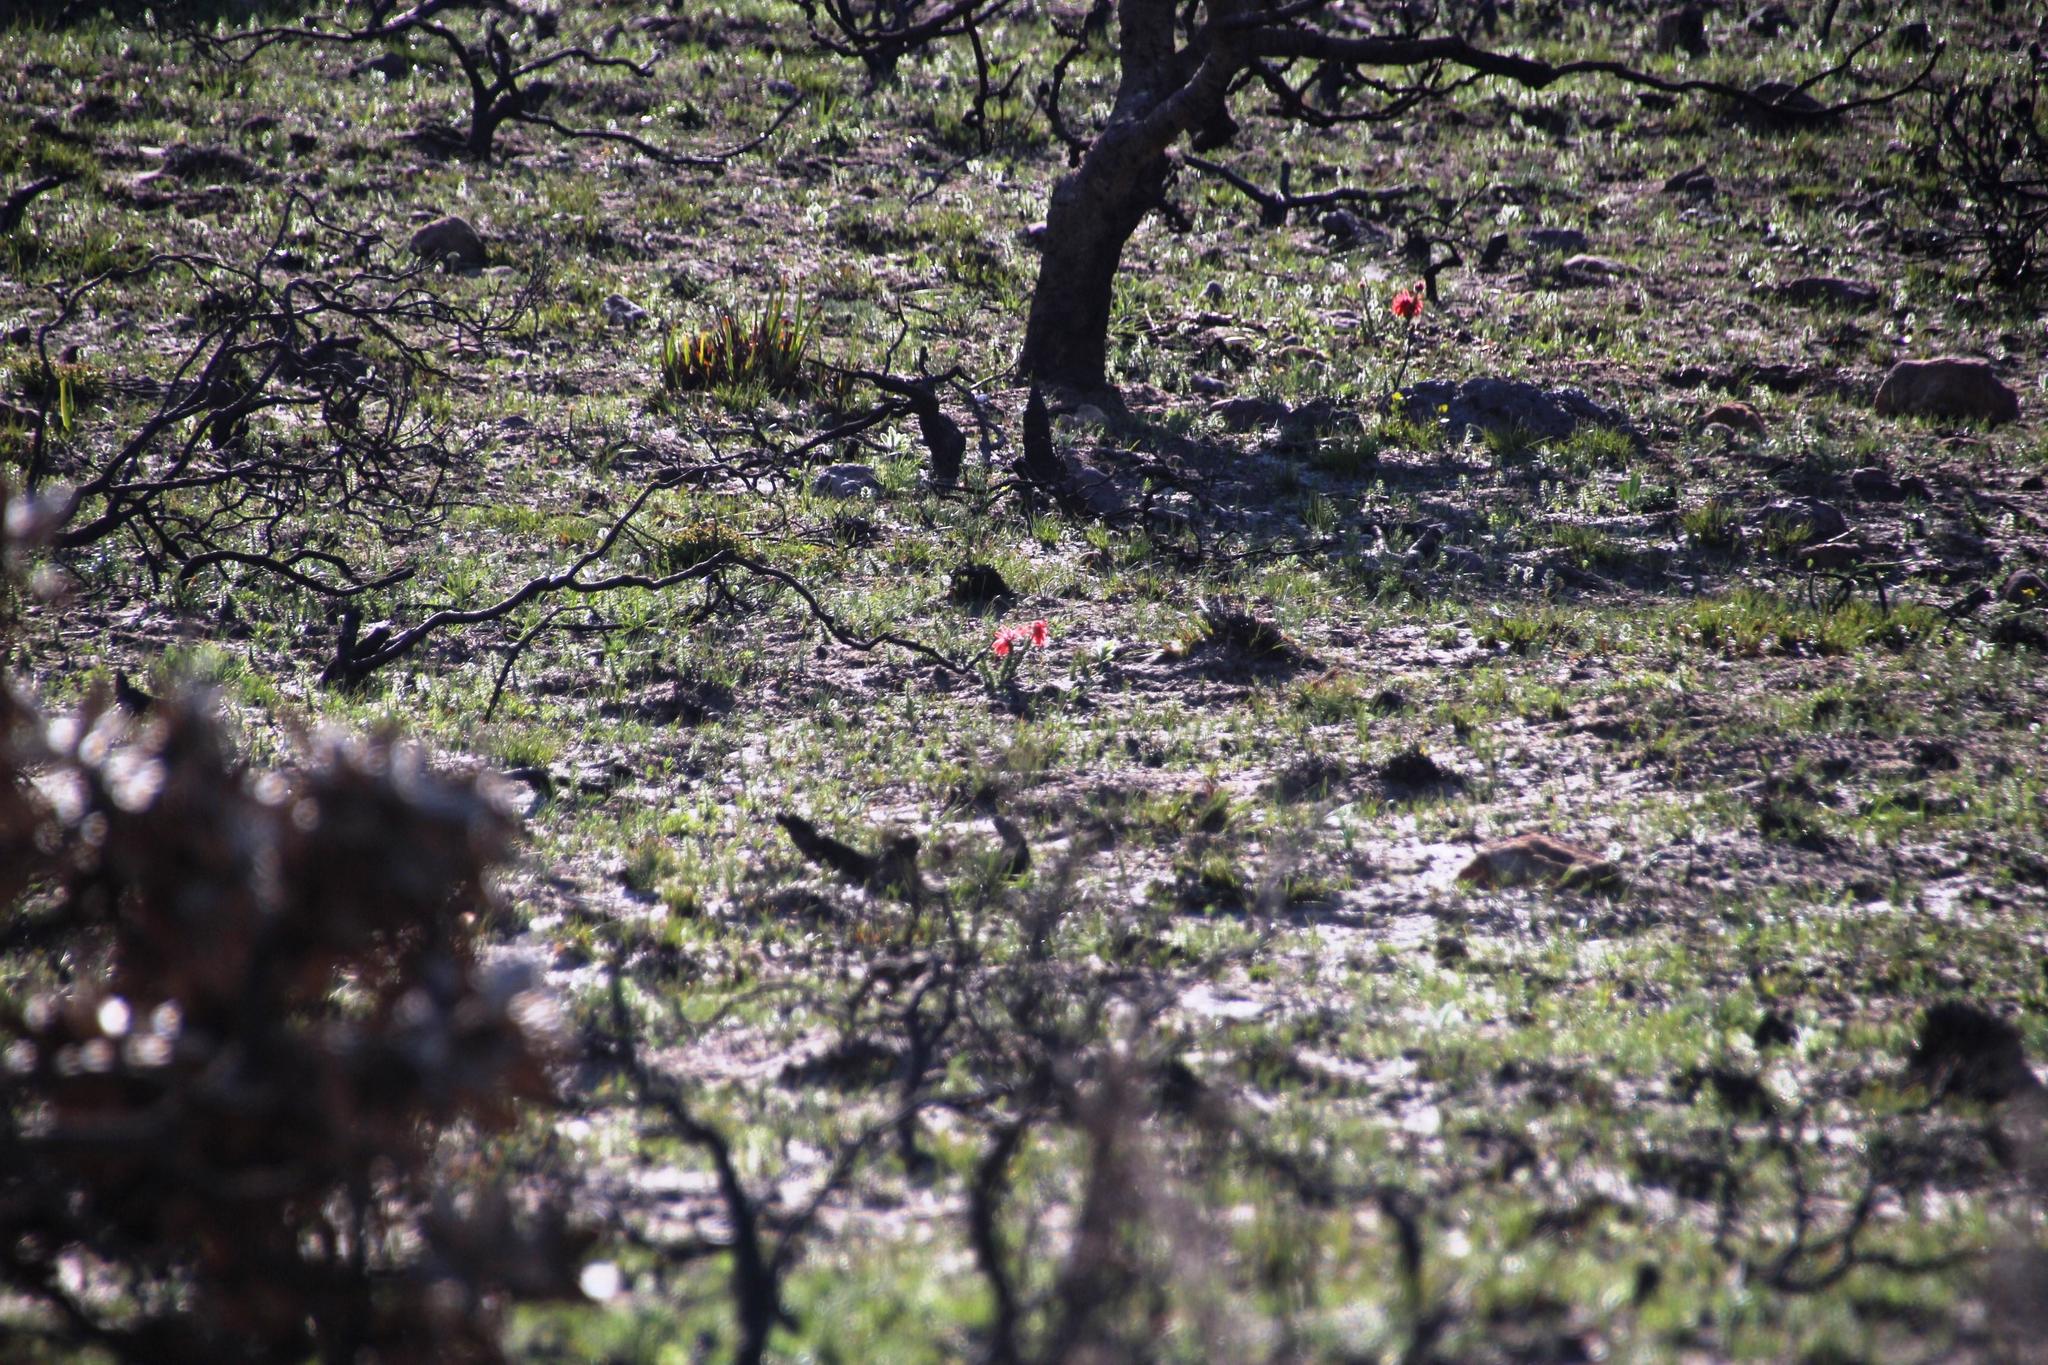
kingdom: Plantae
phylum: Tracheophyta
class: Magnoliopsida
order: Ericales
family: Ericaceae
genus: Erica
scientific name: Erica cerinthoides
